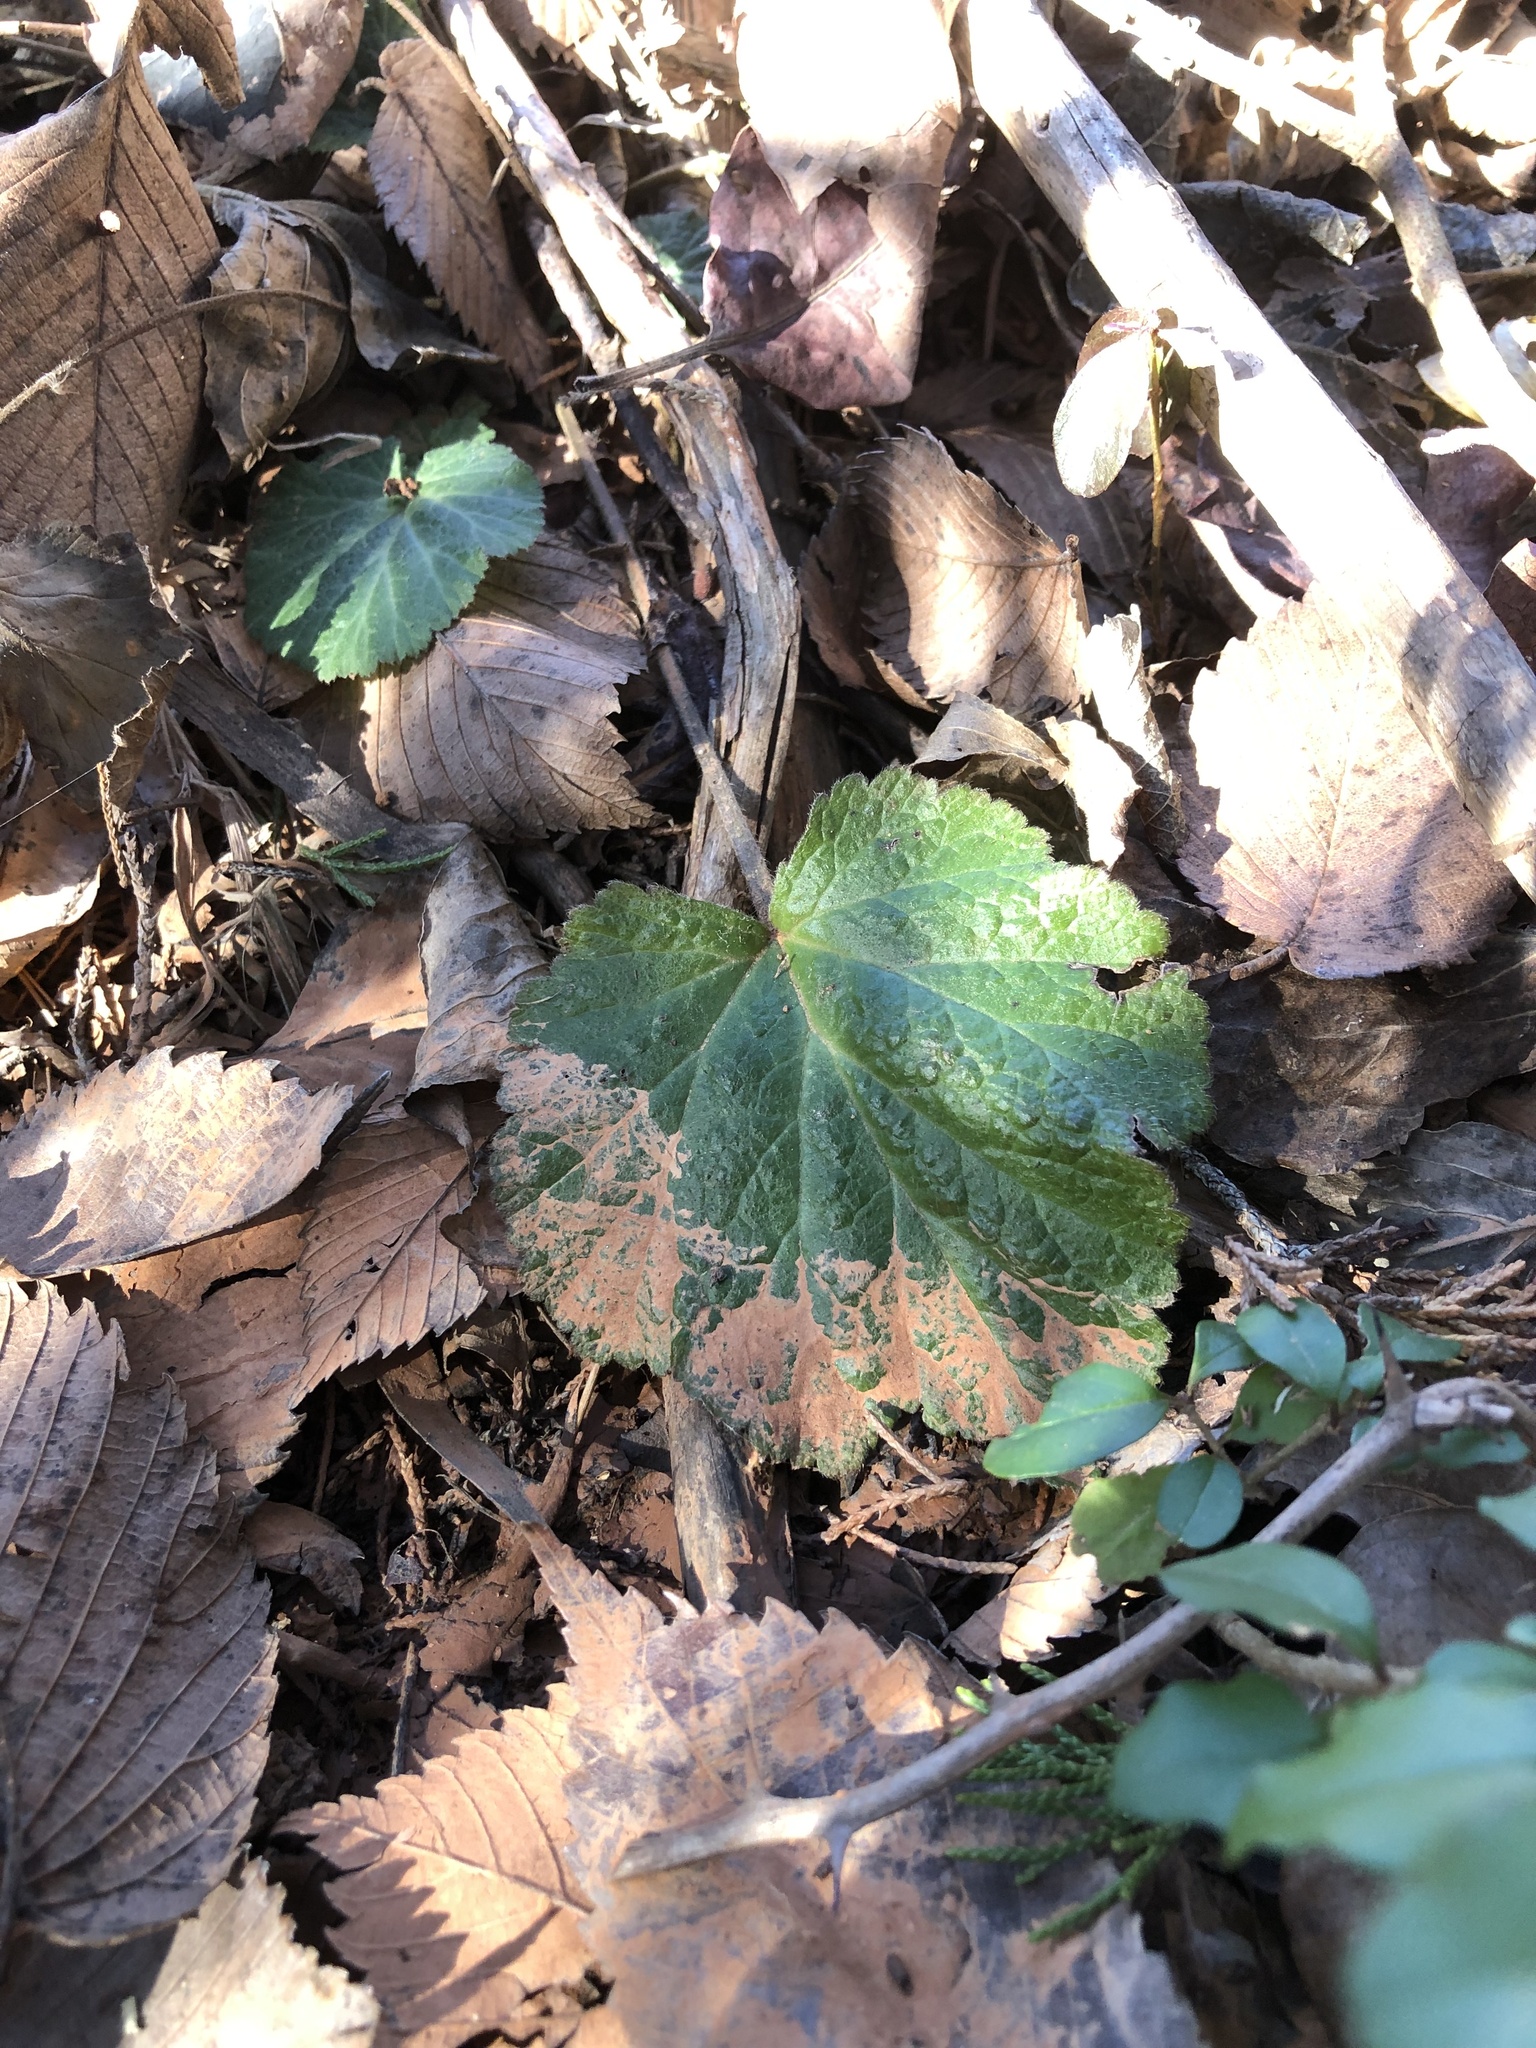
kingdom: Plantae
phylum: Tracheophyta
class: Magnoliopsida
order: Rosales
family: Rosaceae
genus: Geum
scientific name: Geum canadense
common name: White avens
